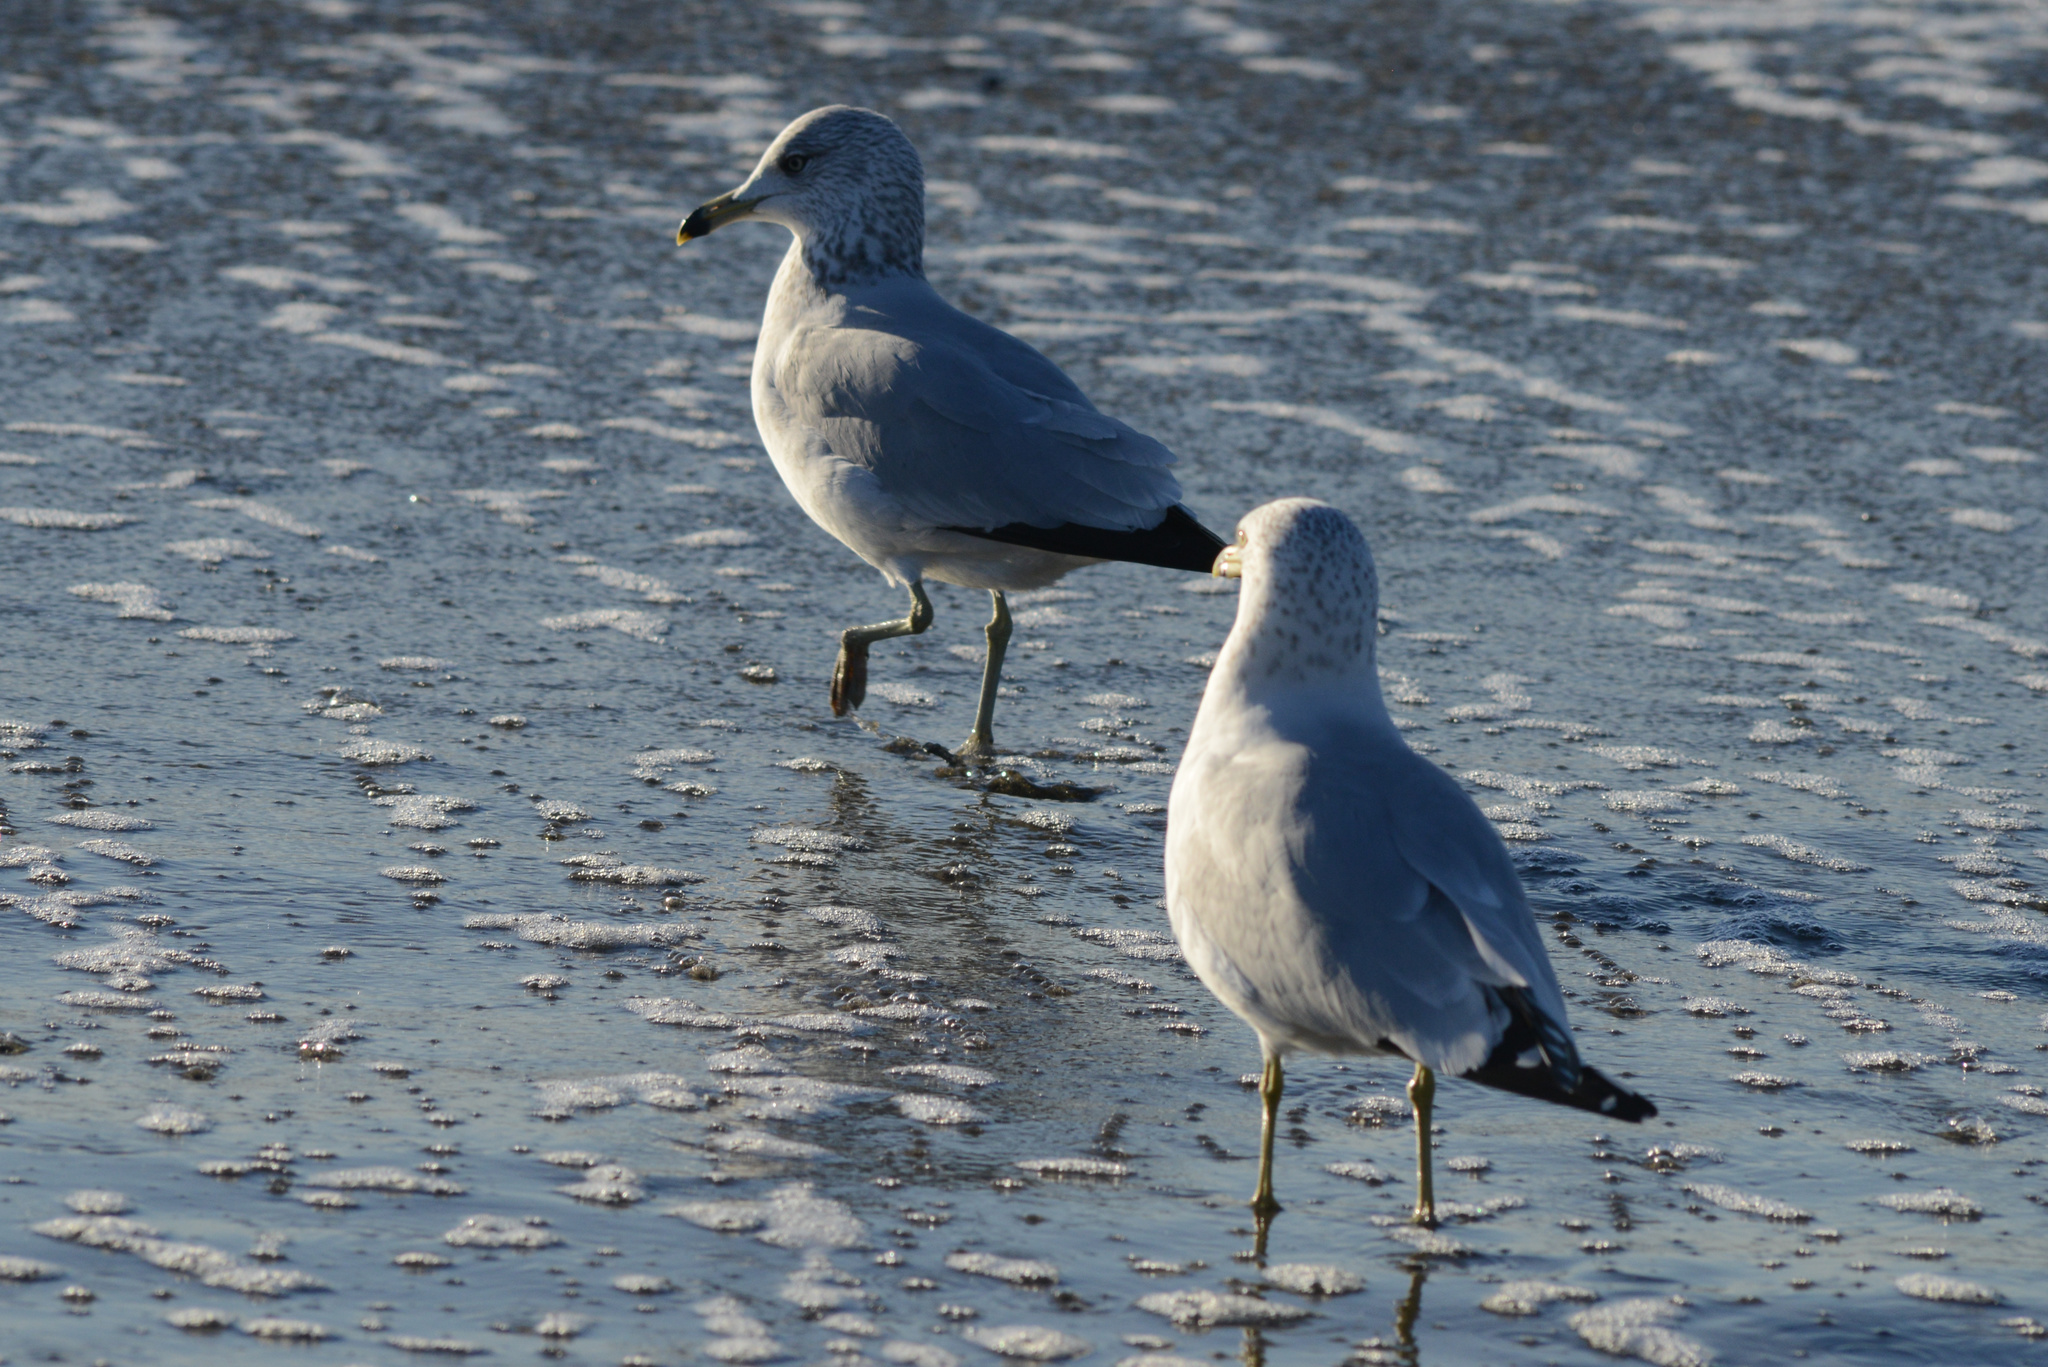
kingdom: Animalia
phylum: Chordata
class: Aves
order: Charadriiformes
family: Laridae
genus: Larus
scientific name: Larus delawarensis
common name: Ring-billed gull
